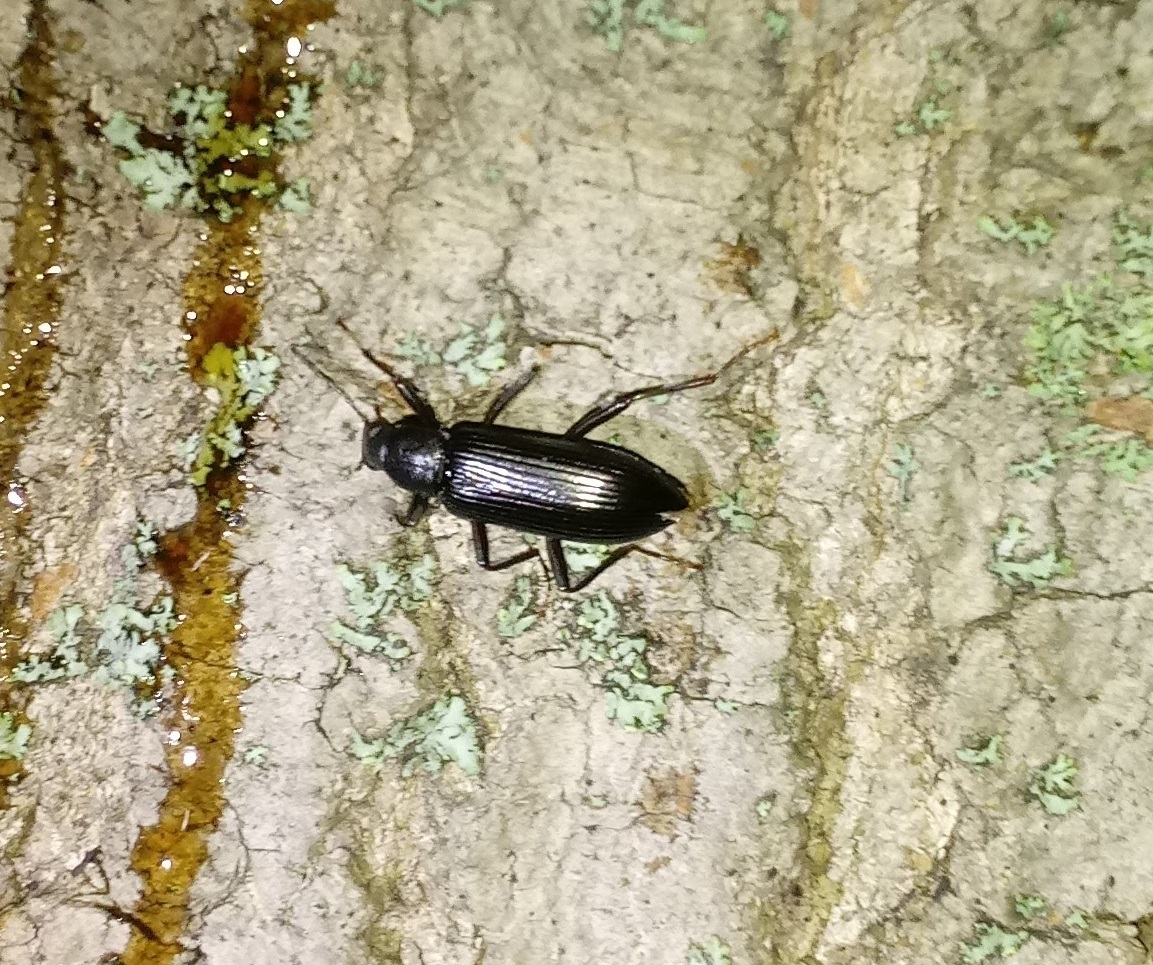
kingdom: Animalia
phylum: Arthropoda
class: Insecta
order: Coleoptera
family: Tenebrionidae
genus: Strongylium
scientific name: Strongylium tenuicolle
